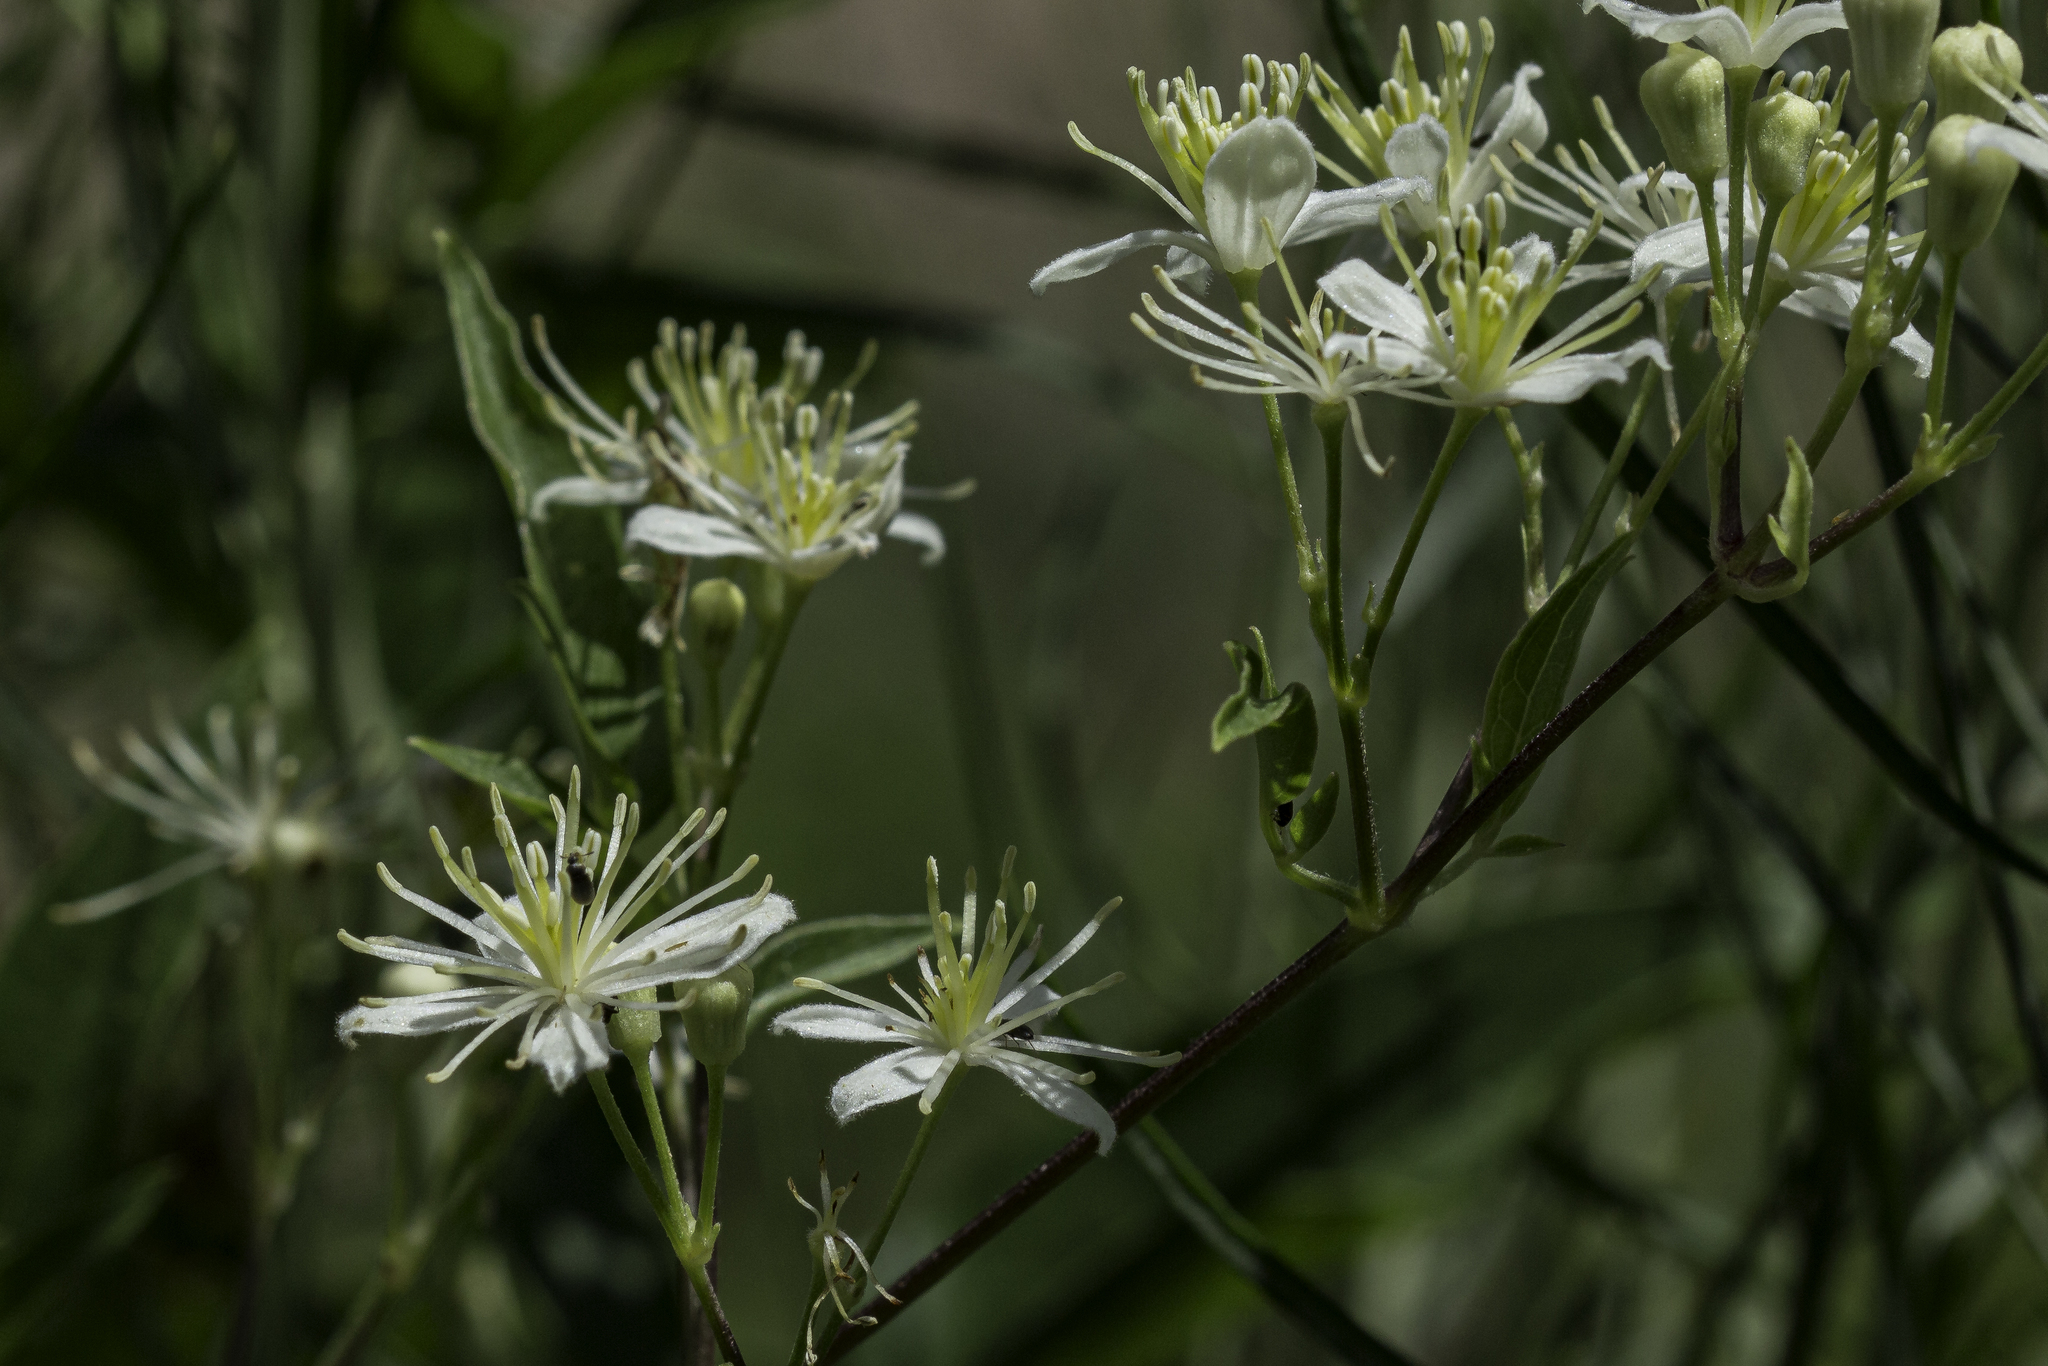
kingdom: Plantae
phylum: Tracheophyta
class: Magnoliopsida
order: Ranunculales
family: Ranunculaceae
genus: Clematis
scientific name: Clematis ligusticifolia
